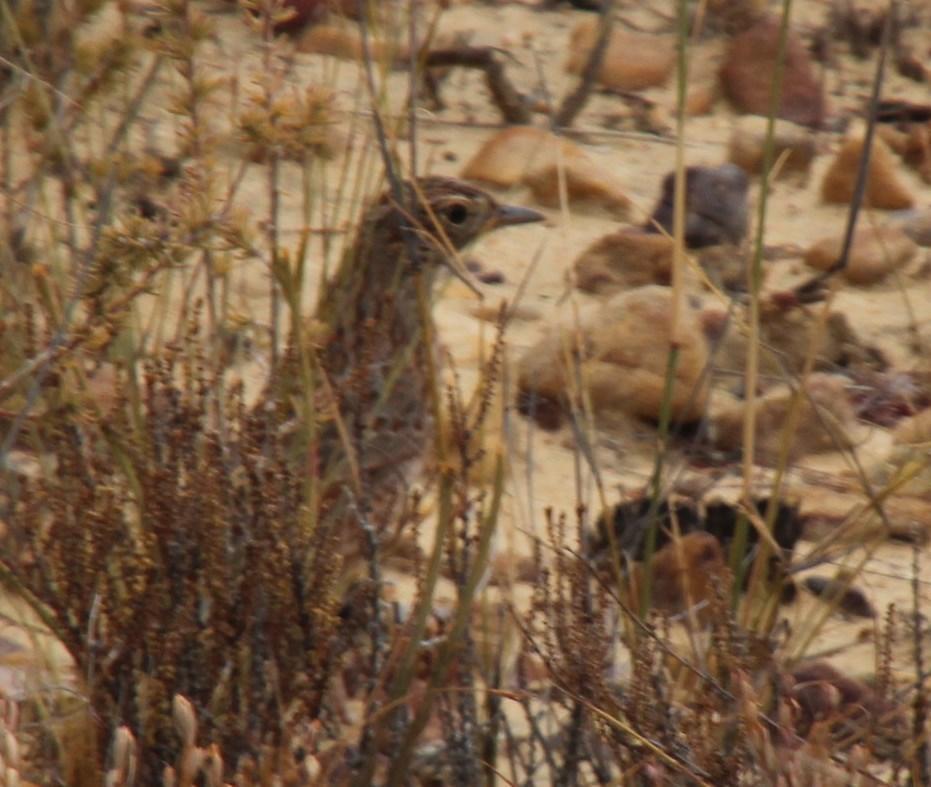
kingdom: Animalia
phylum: Chordata
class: Aves
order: Passeriformes
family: Alaudidae
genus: Mirafra
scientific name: Mirafra apiata
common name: Cape clapper lark
